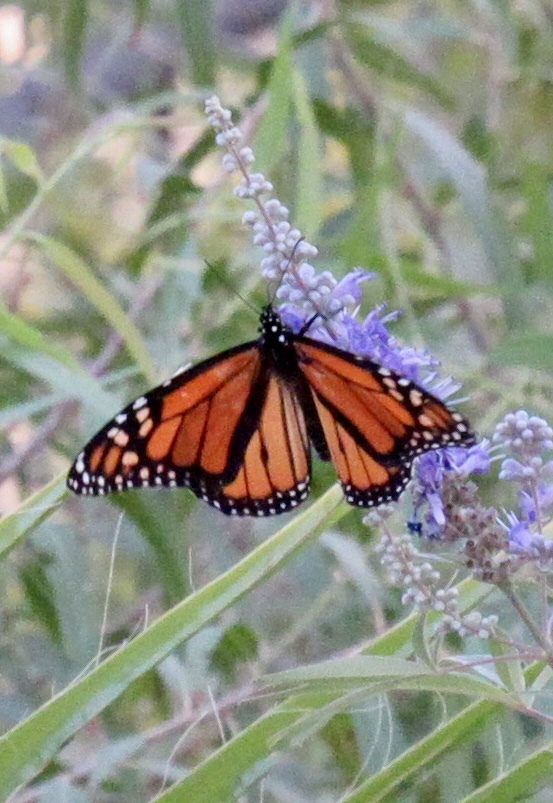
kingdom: Animalia
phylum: Arthropoda
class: Insecta
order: Lepidoptera
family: Nymphalidae
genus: Danaus
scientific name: Danaus plexippus
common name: Monarch
